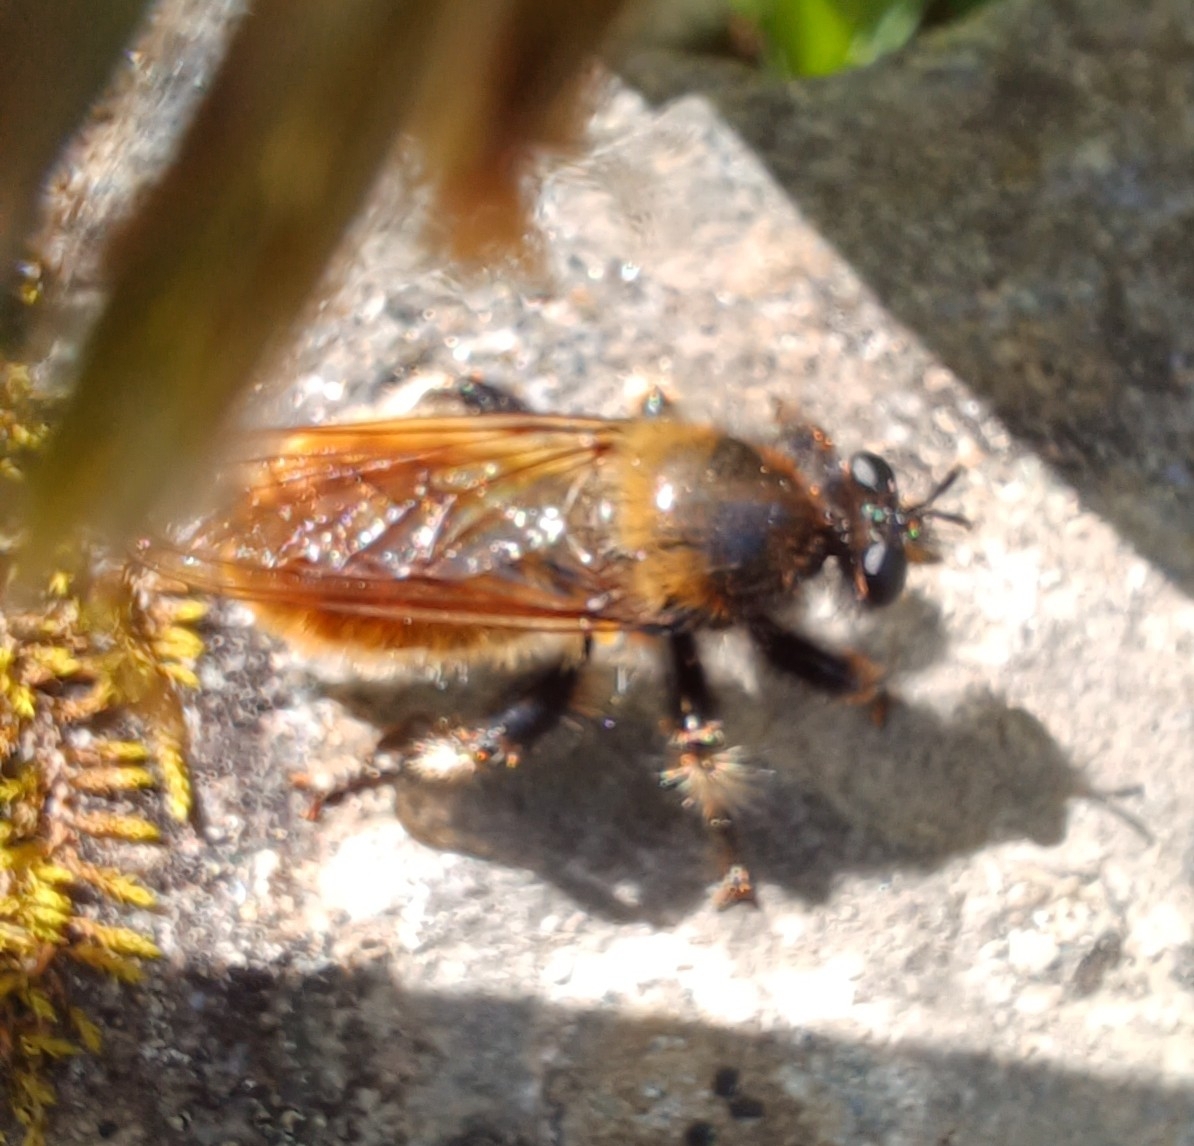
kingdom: Animalia
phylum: Arthropoda
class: Insecta
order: Diptera
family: Asilidae
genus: Laphria
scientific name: Laphria flava
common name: Bumblebee robberfly
